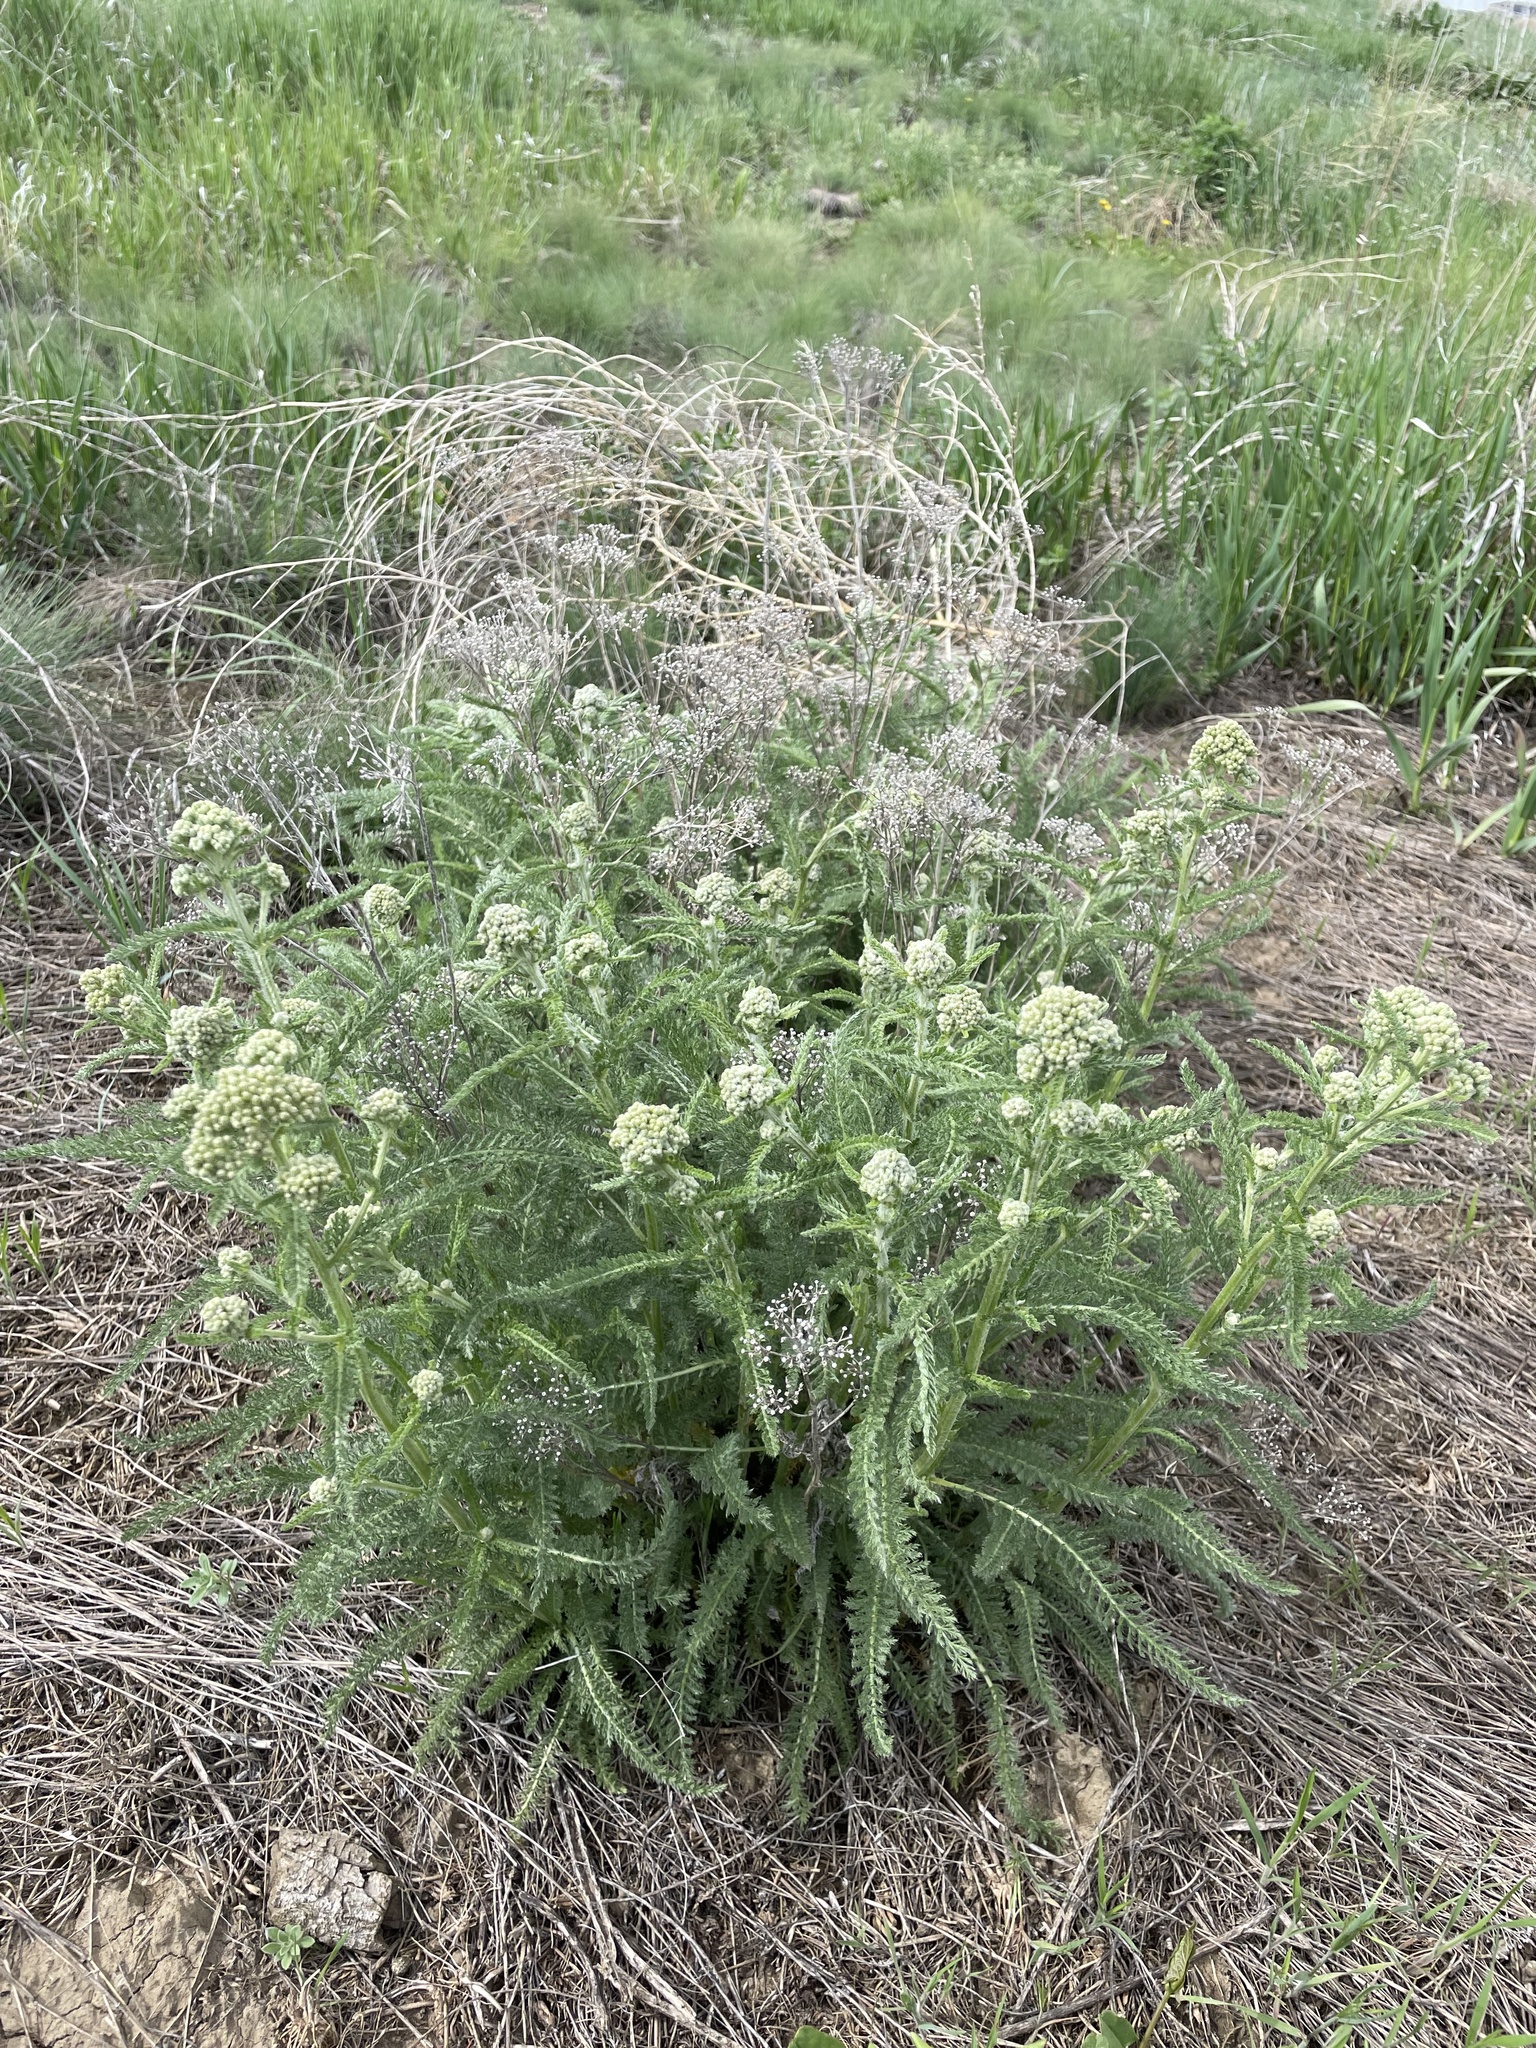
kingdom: Plantae
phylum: Tracheophyta
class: Magnoliopsida
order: Asterales
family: Asteraceae
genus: Achillea
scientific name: Achillea millefolium
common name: Yarrow
